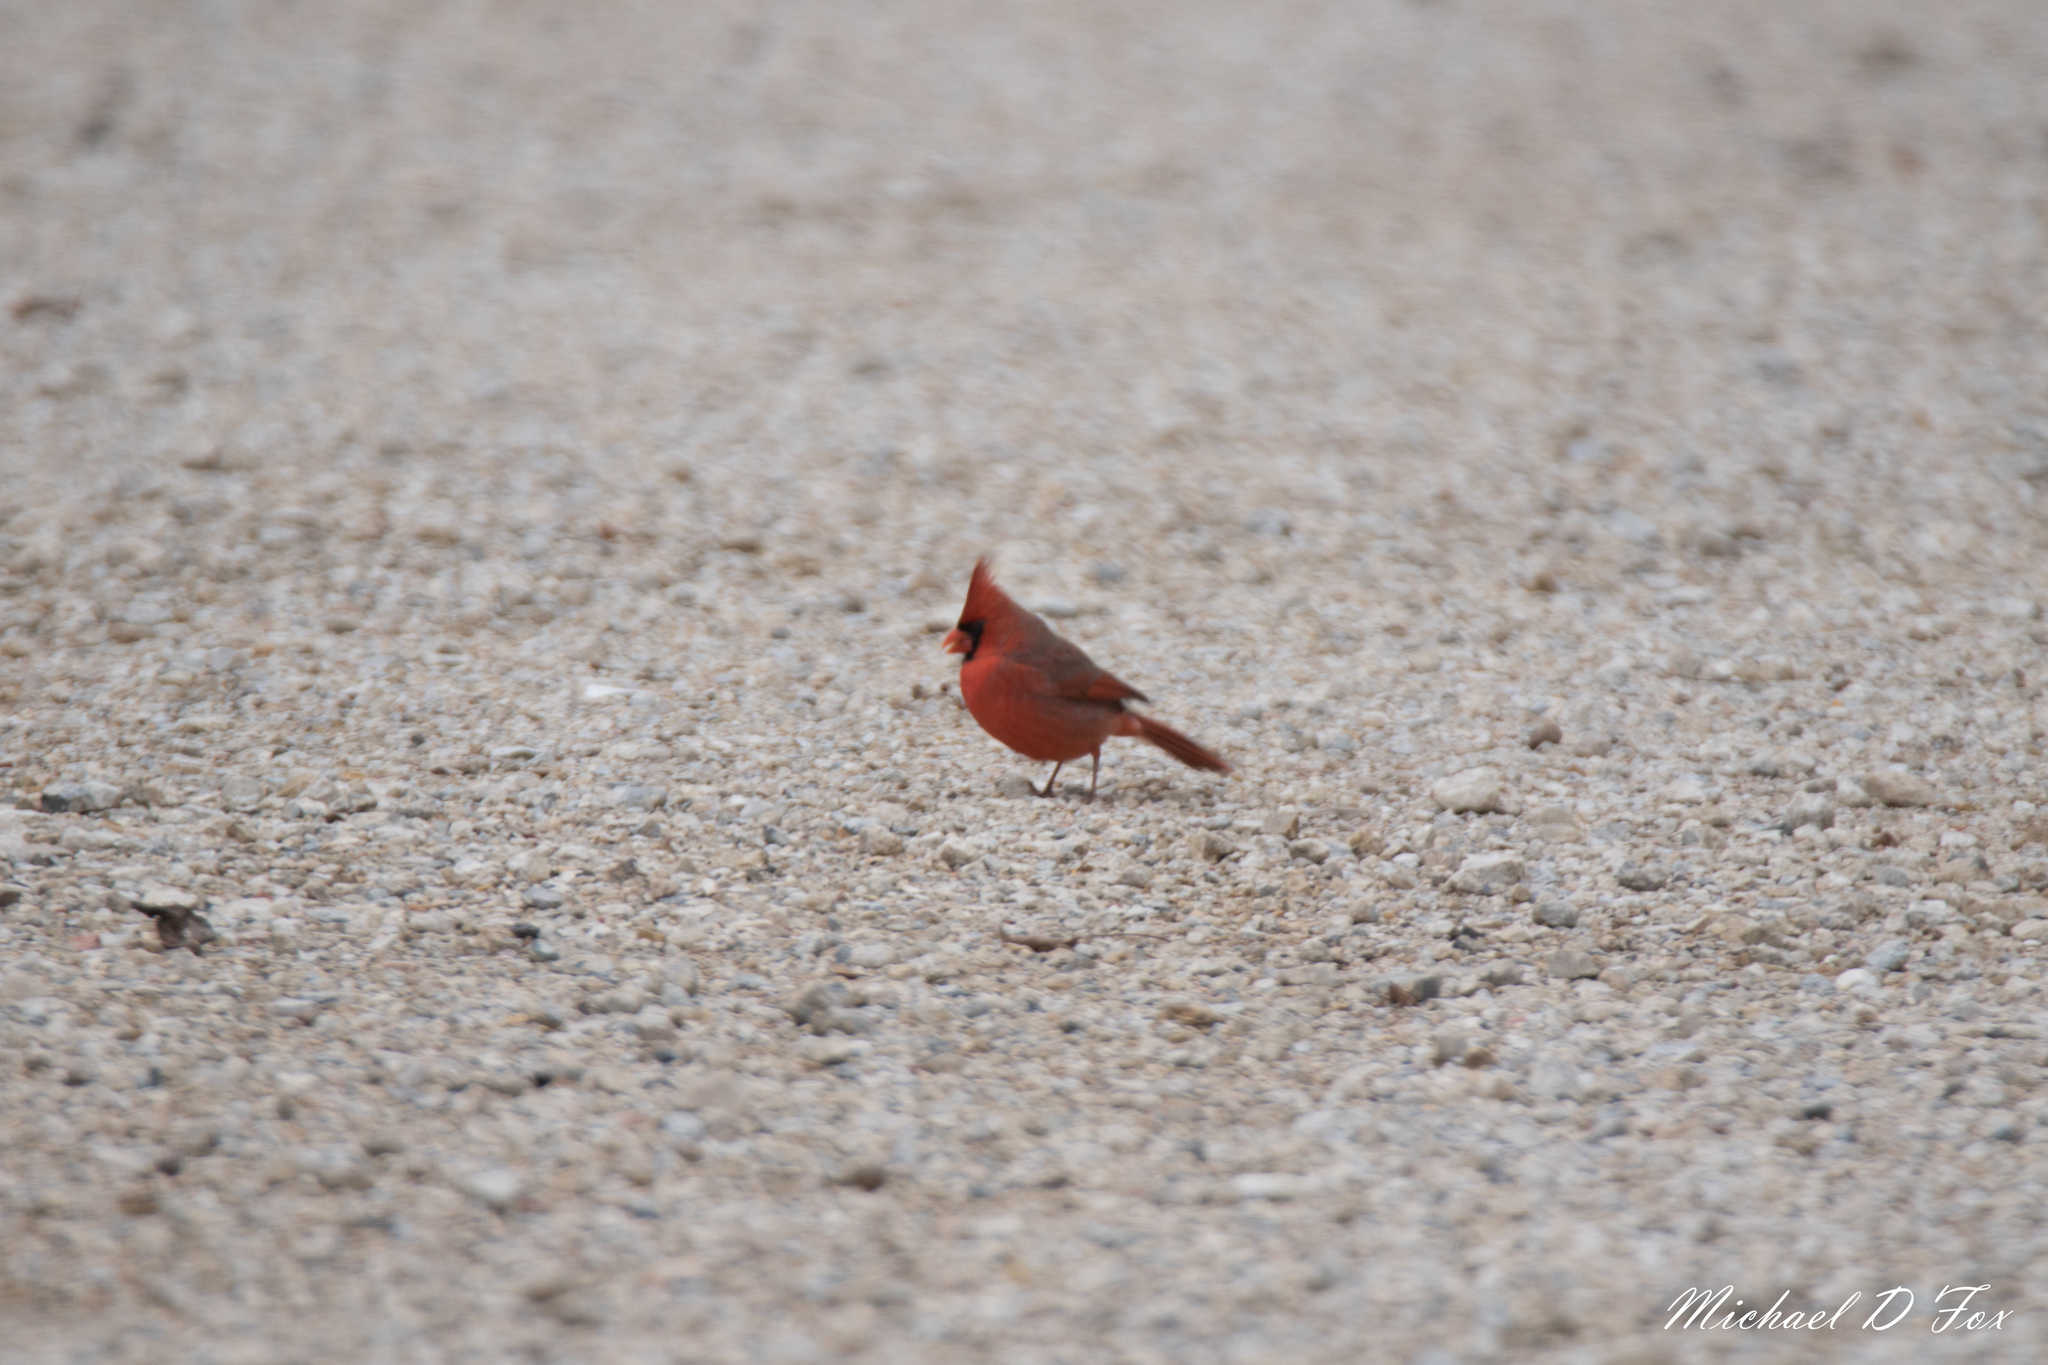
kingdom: Animalia
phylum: Chordata
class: Aves
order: Passeriformes
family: Cardinalidae
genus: Cardinalis
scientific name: Cardinalis cardinalis
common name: Northern cardinal
